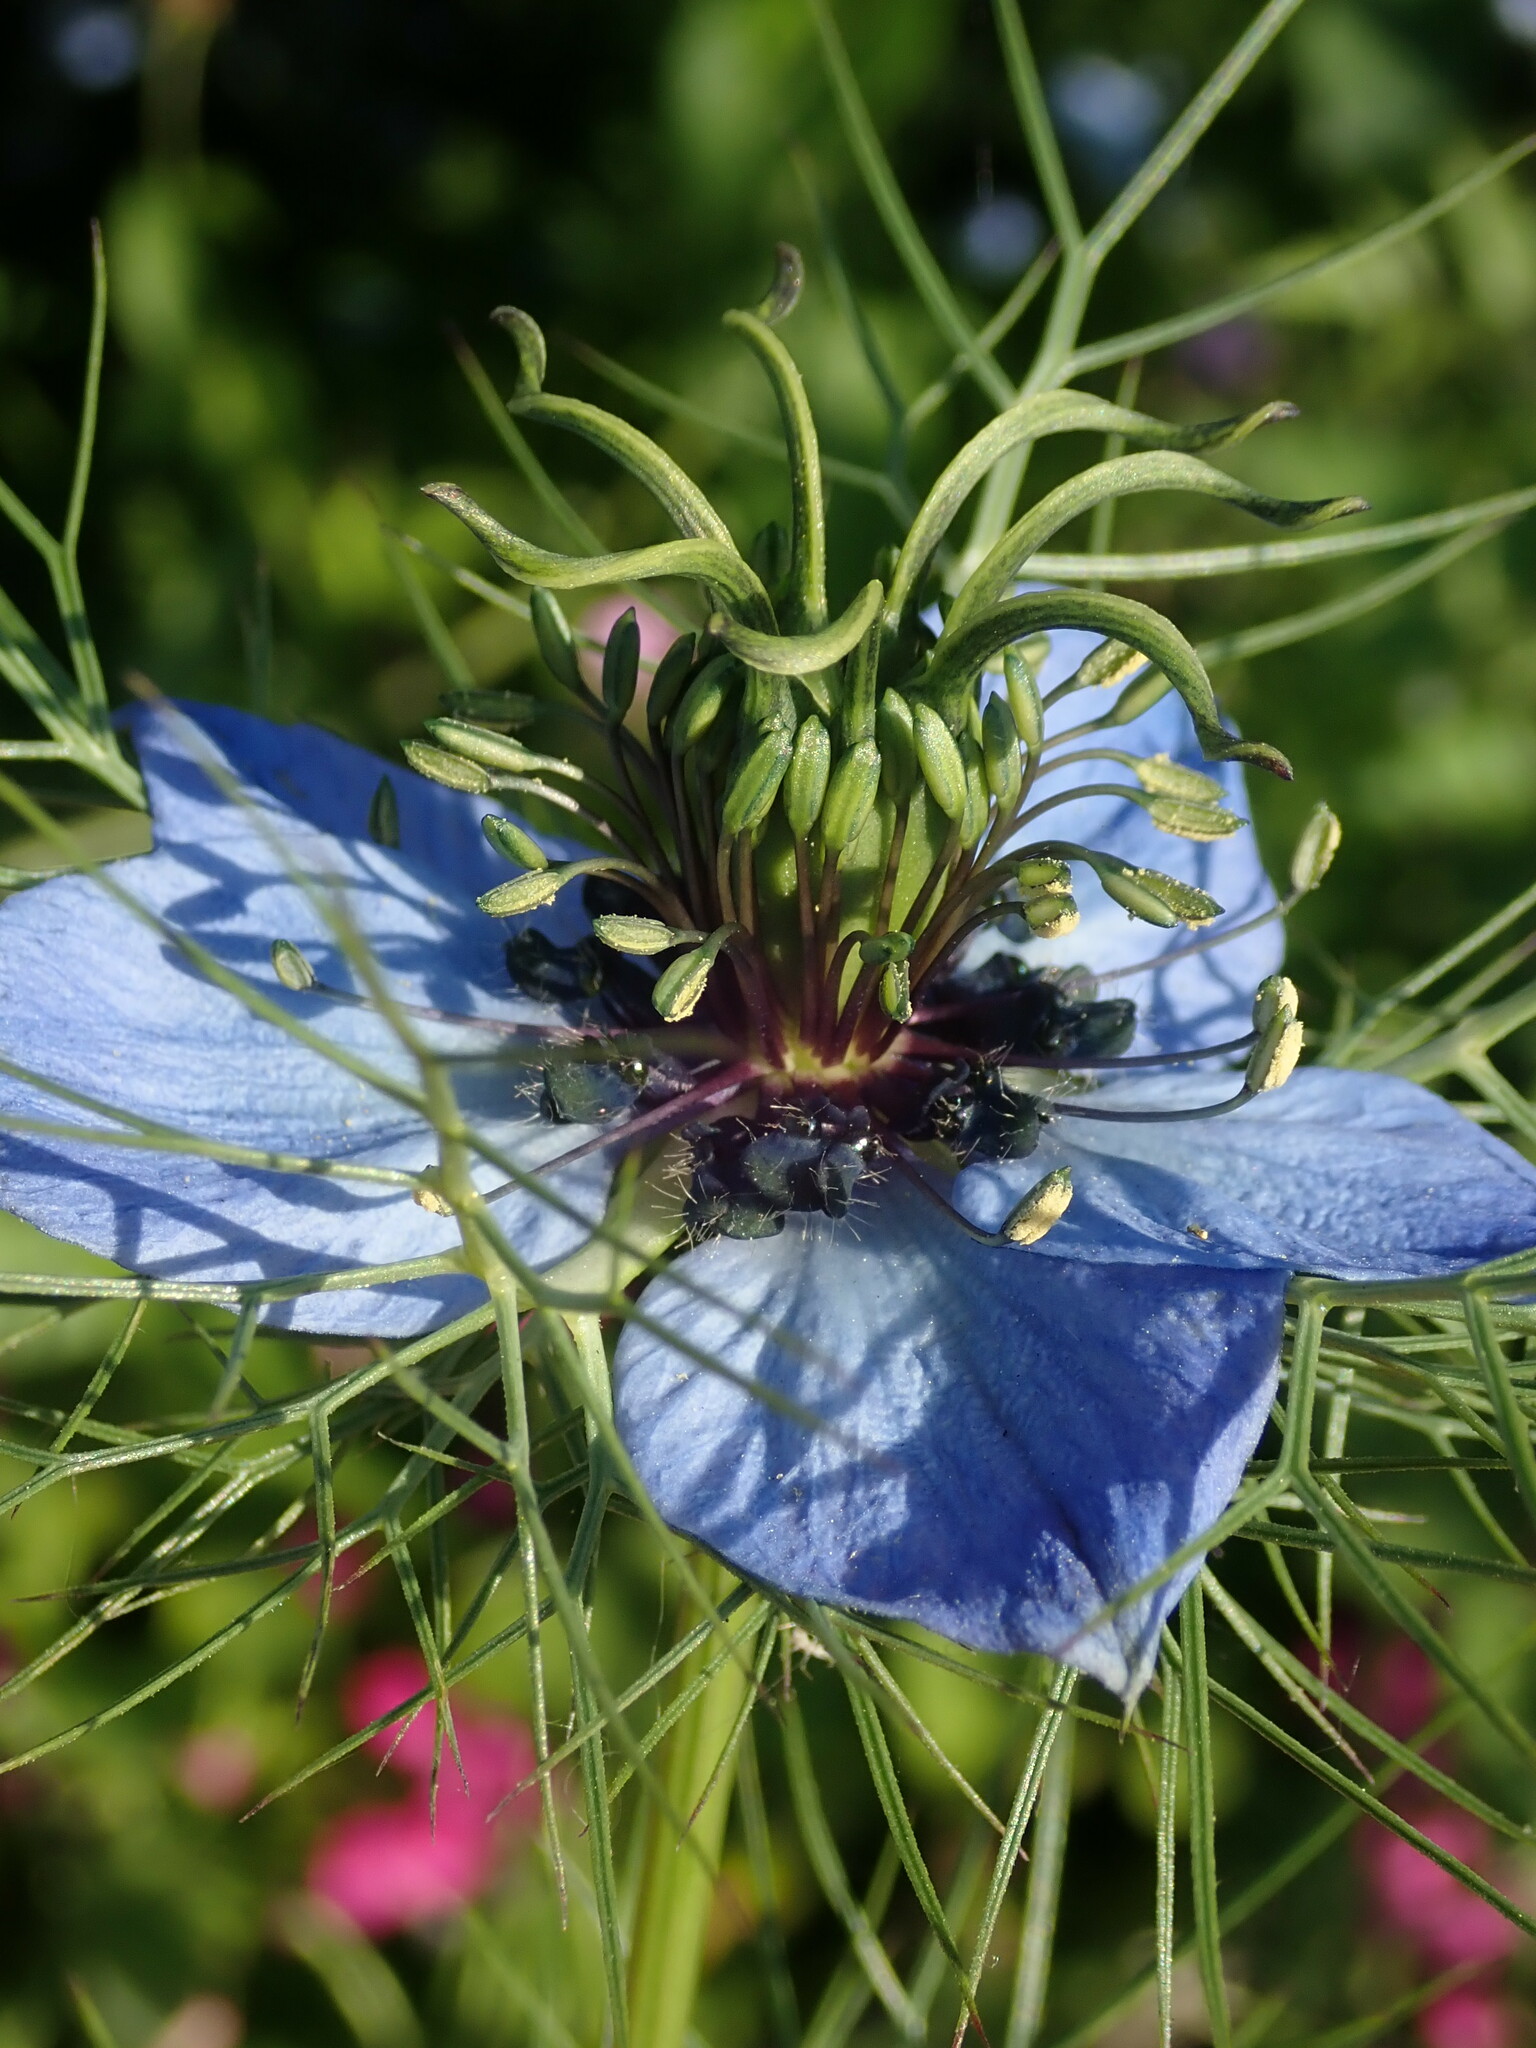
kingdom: Plantae
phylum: Tracheophyta
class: Magnoliopsida
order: Ranunculales
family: Ranunculaceae
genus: Nigella
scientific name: Nigella damascena
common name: Love-in-a-mist
